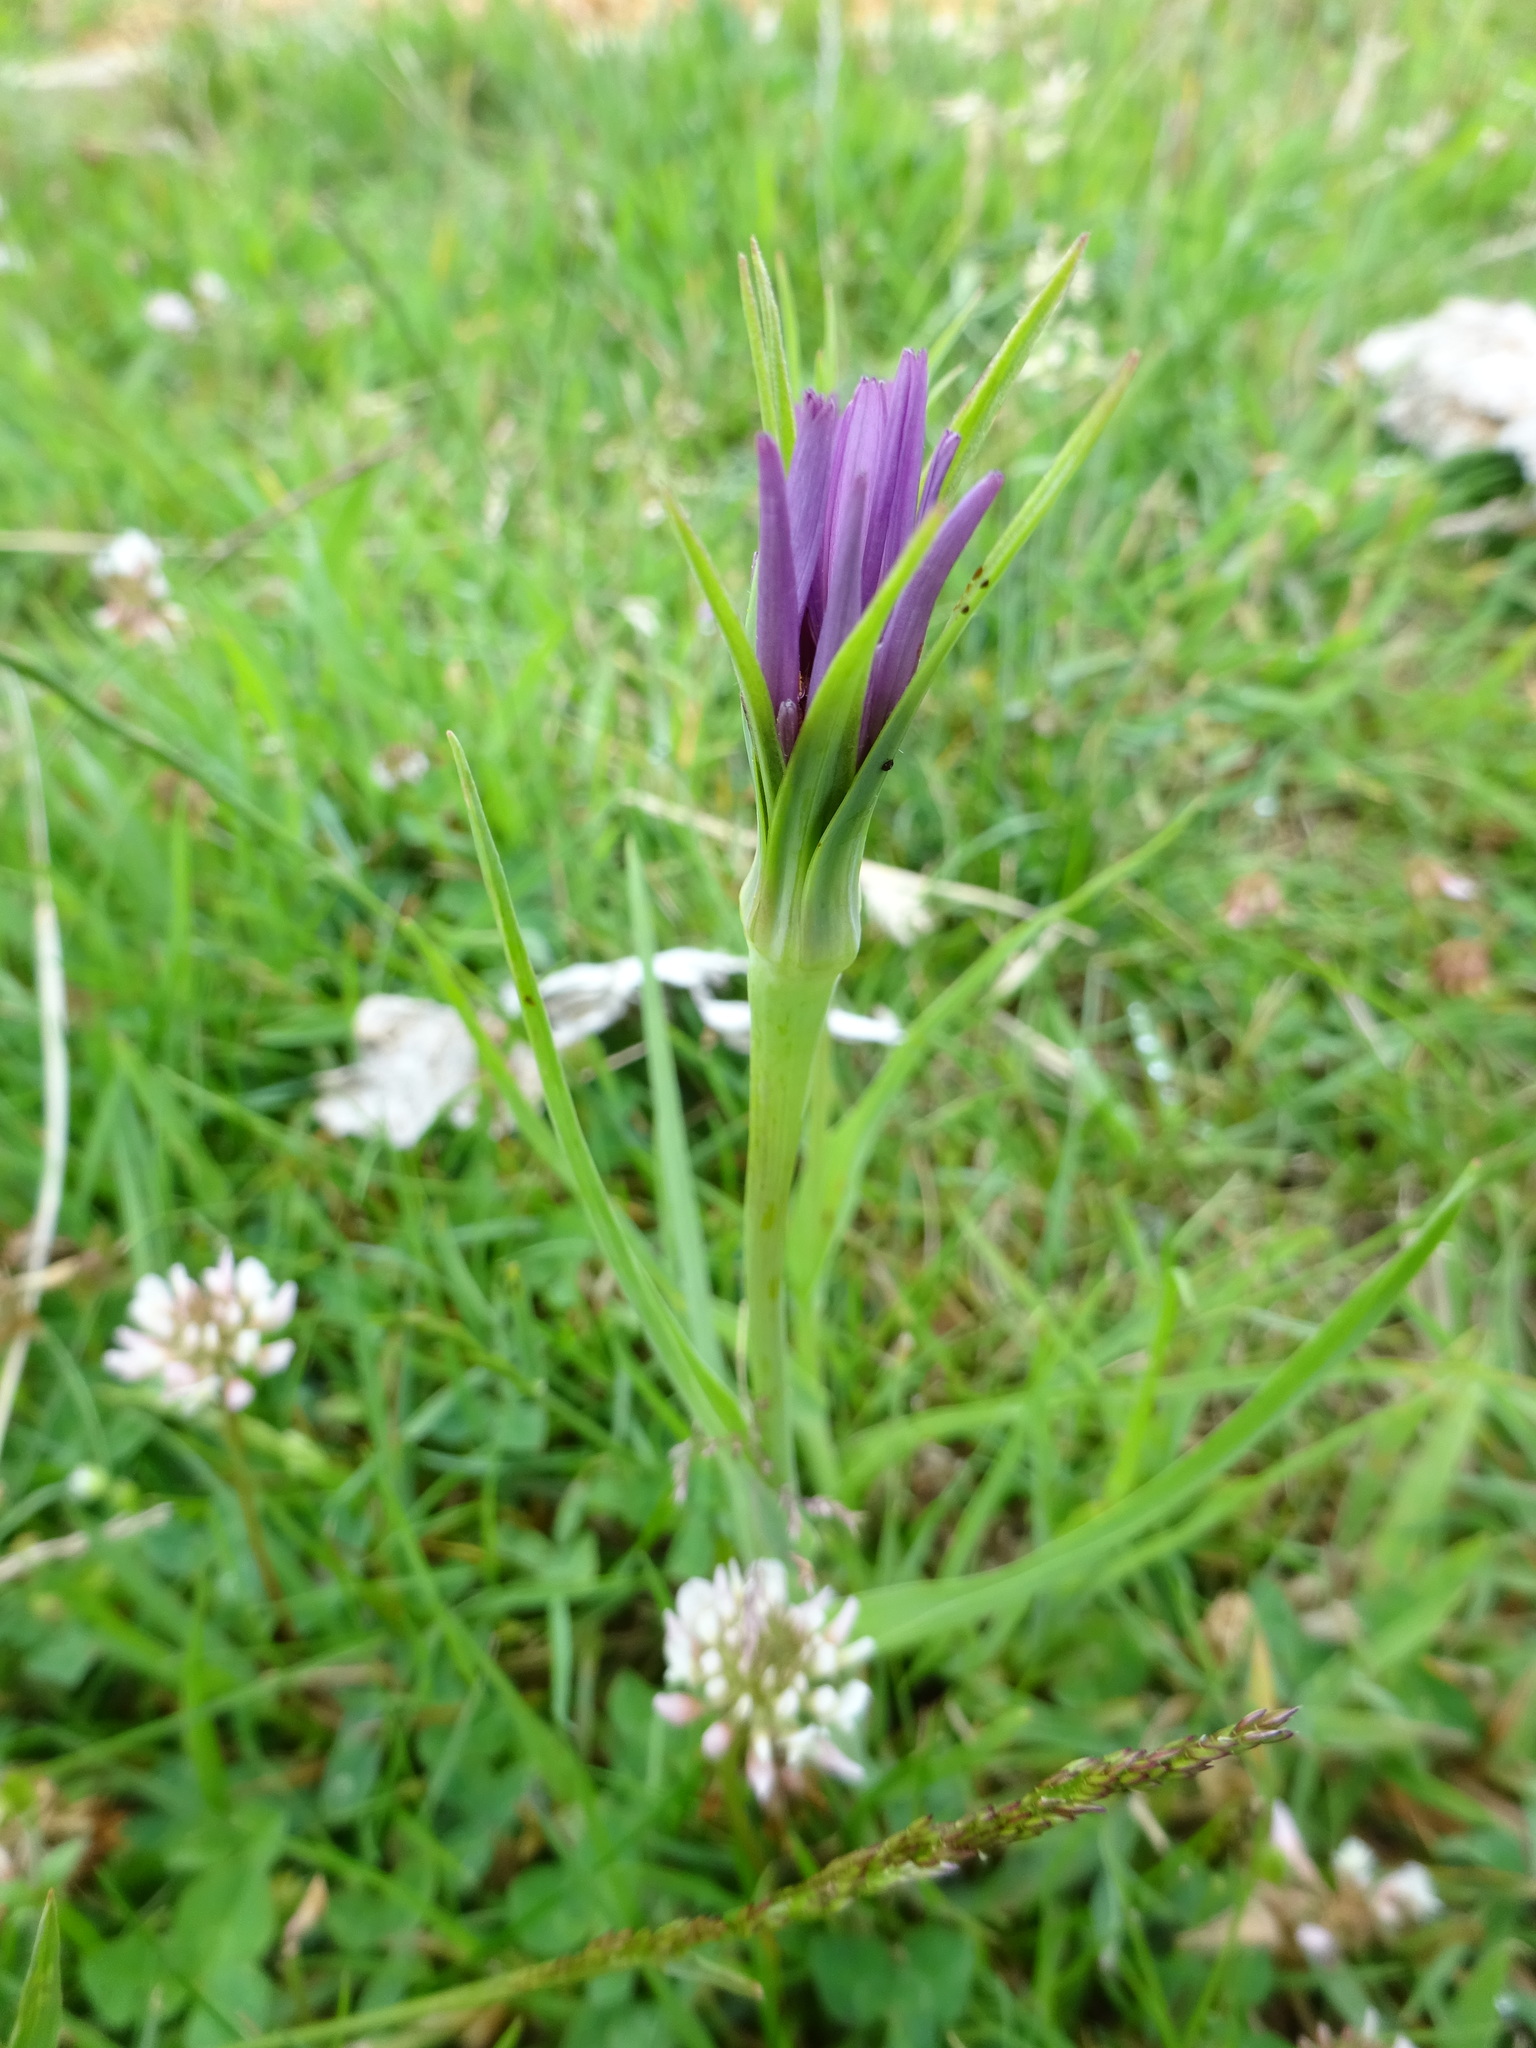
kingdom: Plantae
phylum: Tracheophyta
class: Magnoliopsida
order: Asterales
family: Asteraceae
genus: Tragopogon
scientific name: Tragopogon porrifolius
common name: Salsify
